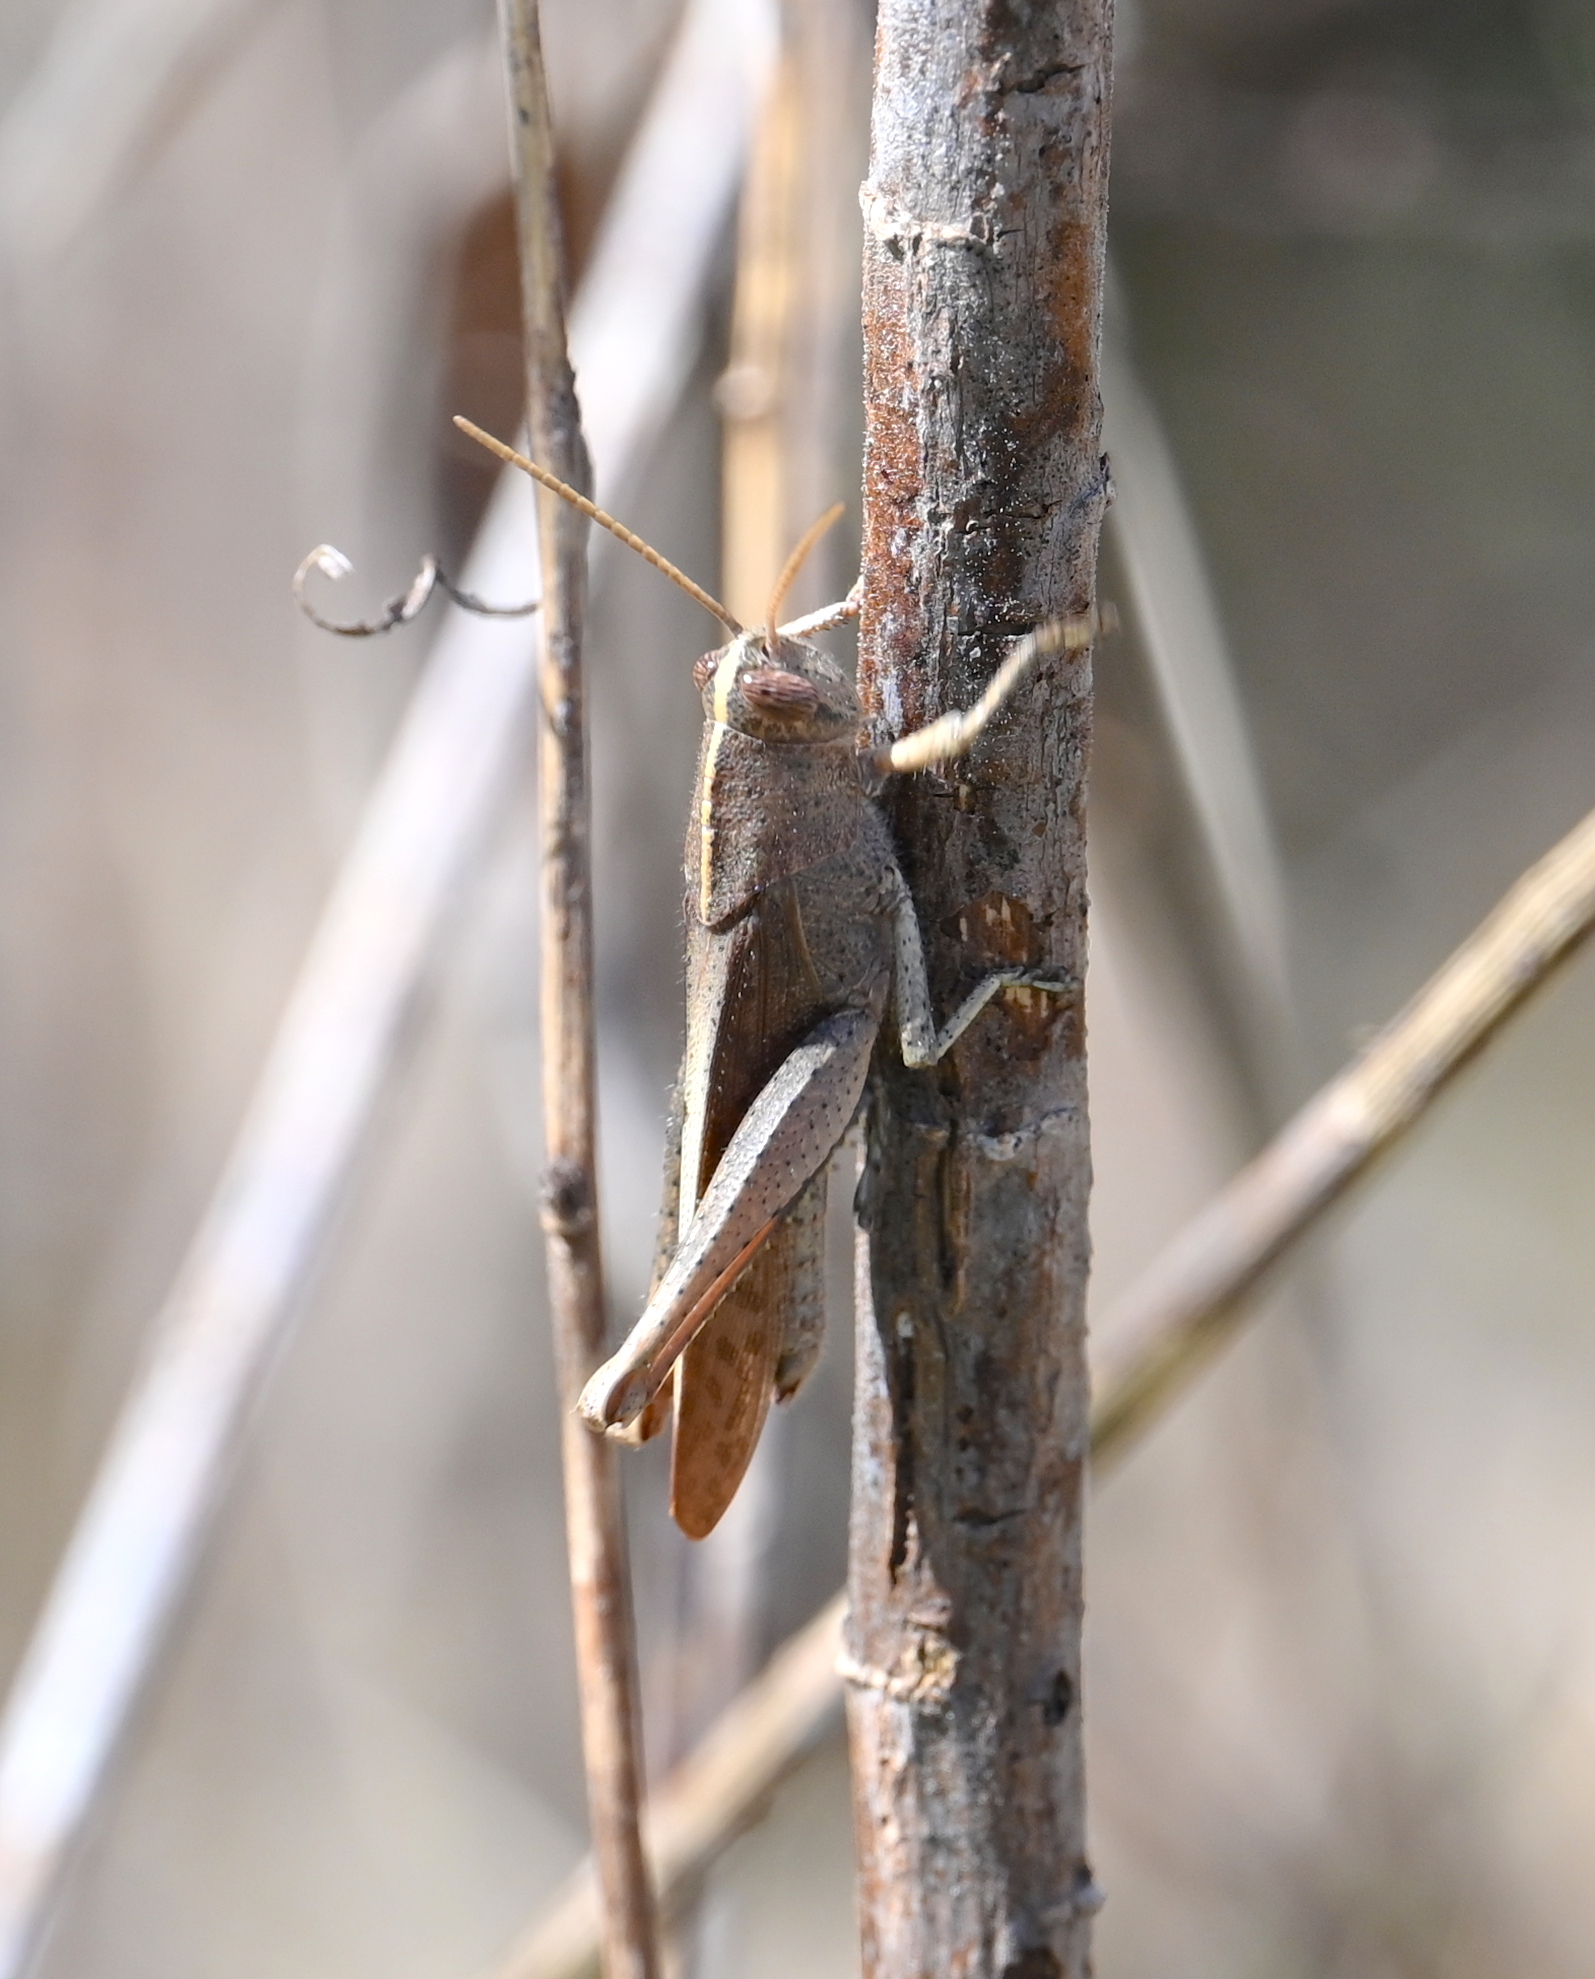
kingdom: Animalia
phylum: Arthropoda
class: Insecta
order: Orthoptera
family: Acrididae
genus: Schistocerca
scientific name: Schistocerca damnifica
